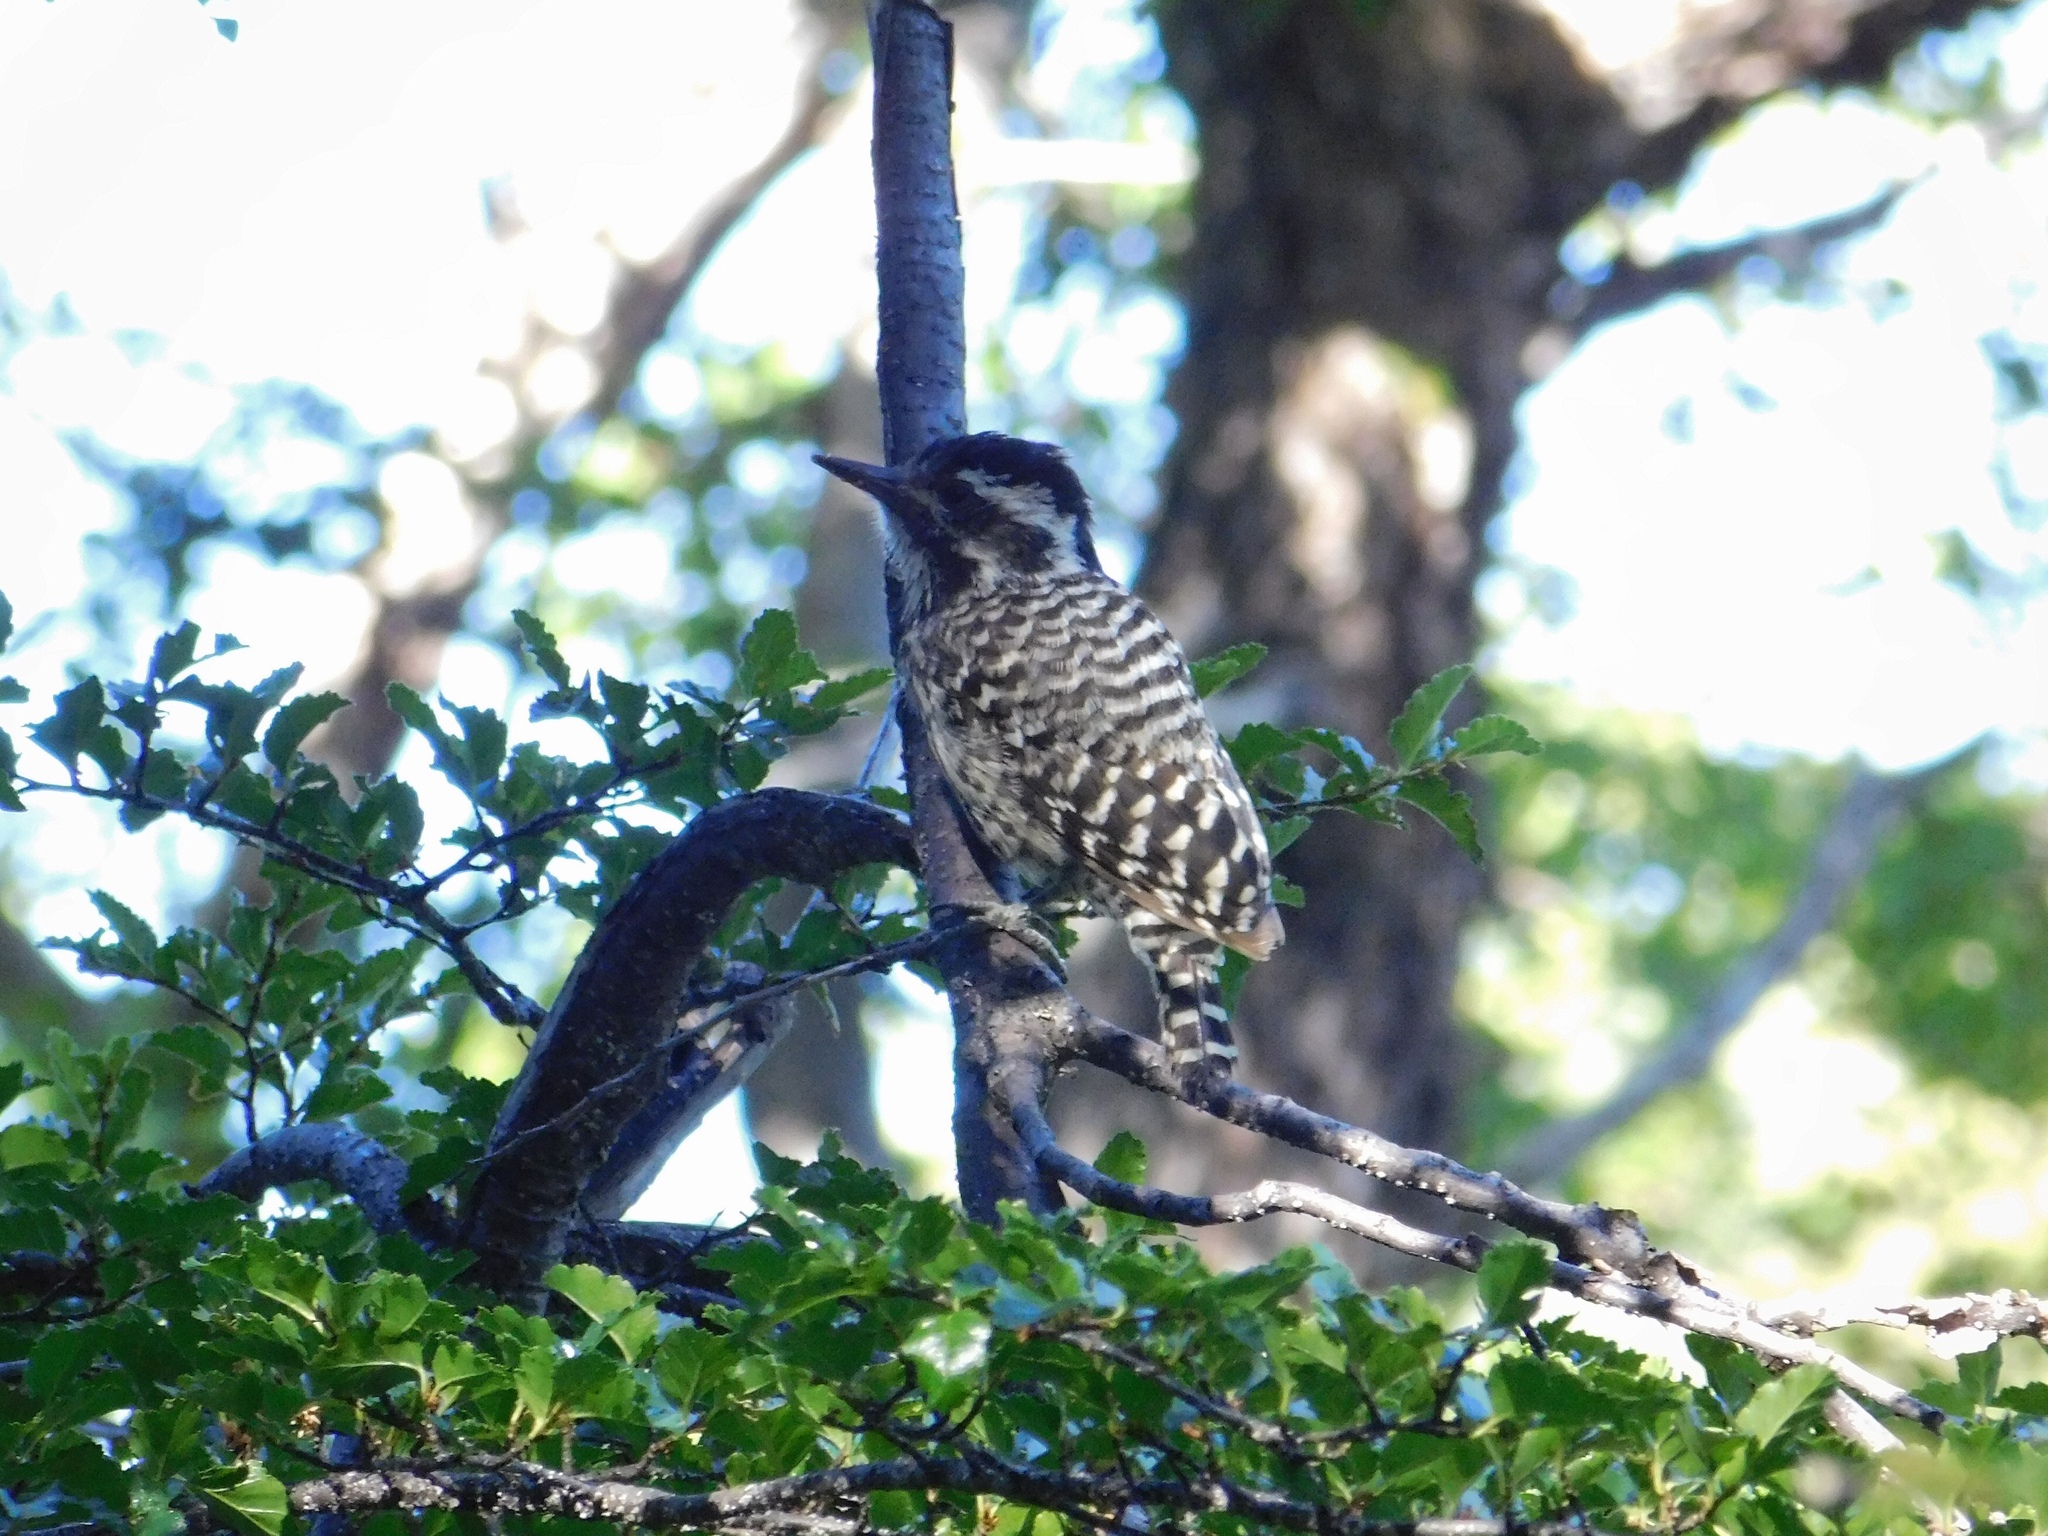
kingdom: Animalia
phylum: Chordata
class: Aves
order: Piciformes
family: Picidae
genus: Veniliornis
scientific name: Veniliornis lignarius
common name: Striped woodpecker
